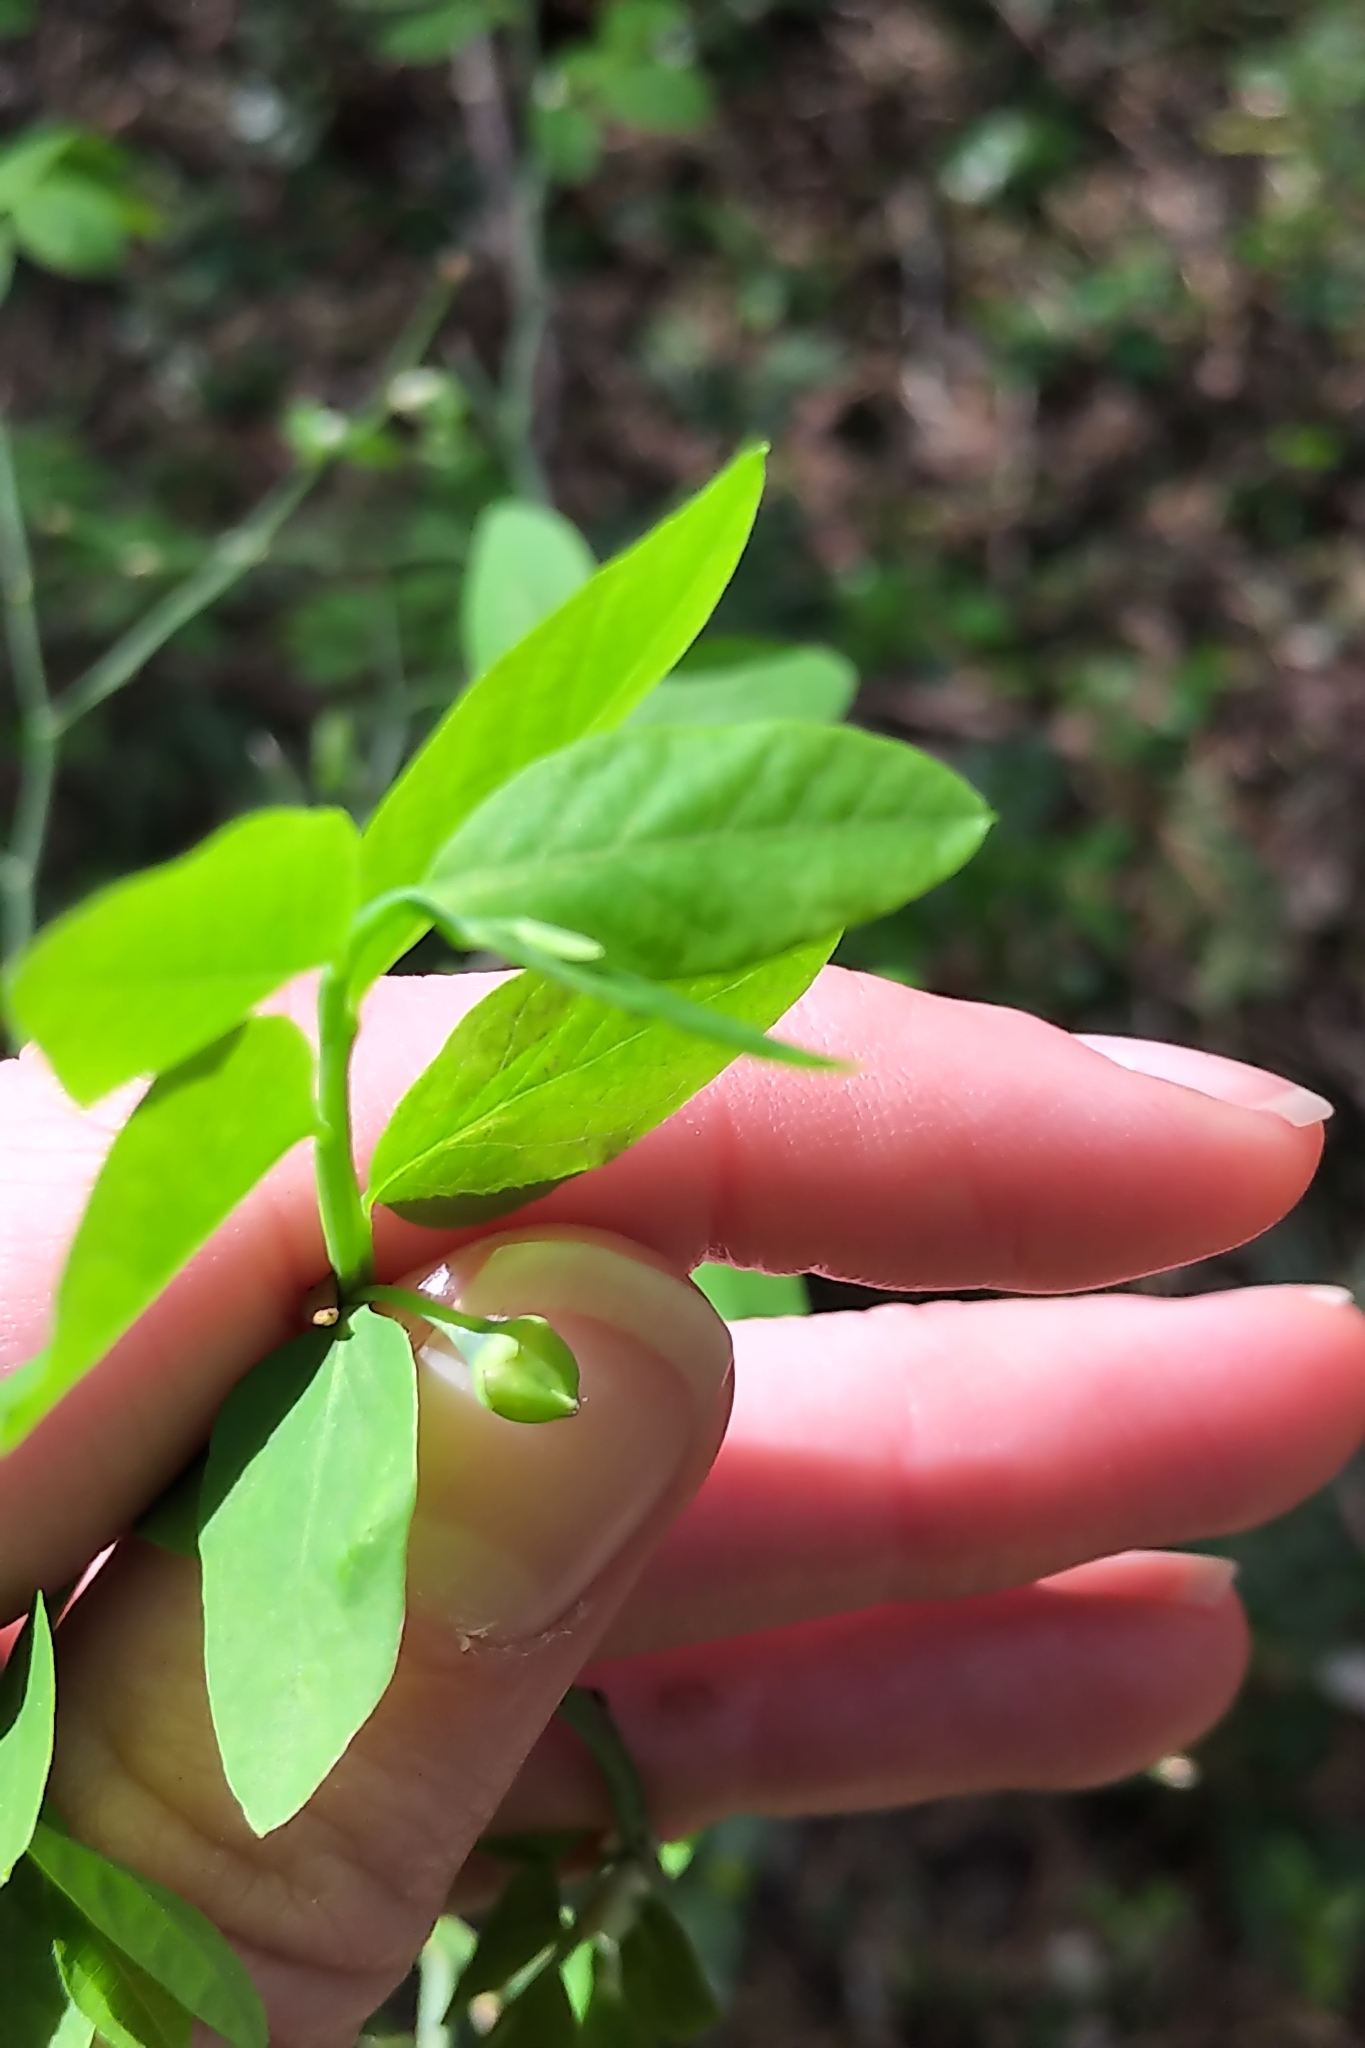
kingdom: Plantae
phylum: Tracheophyta
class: Magnoliopsida
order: Ericales
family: Ericaceae
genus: Vaccinium
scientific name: Vaccinium parvifolium
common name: Red-huckleberry
